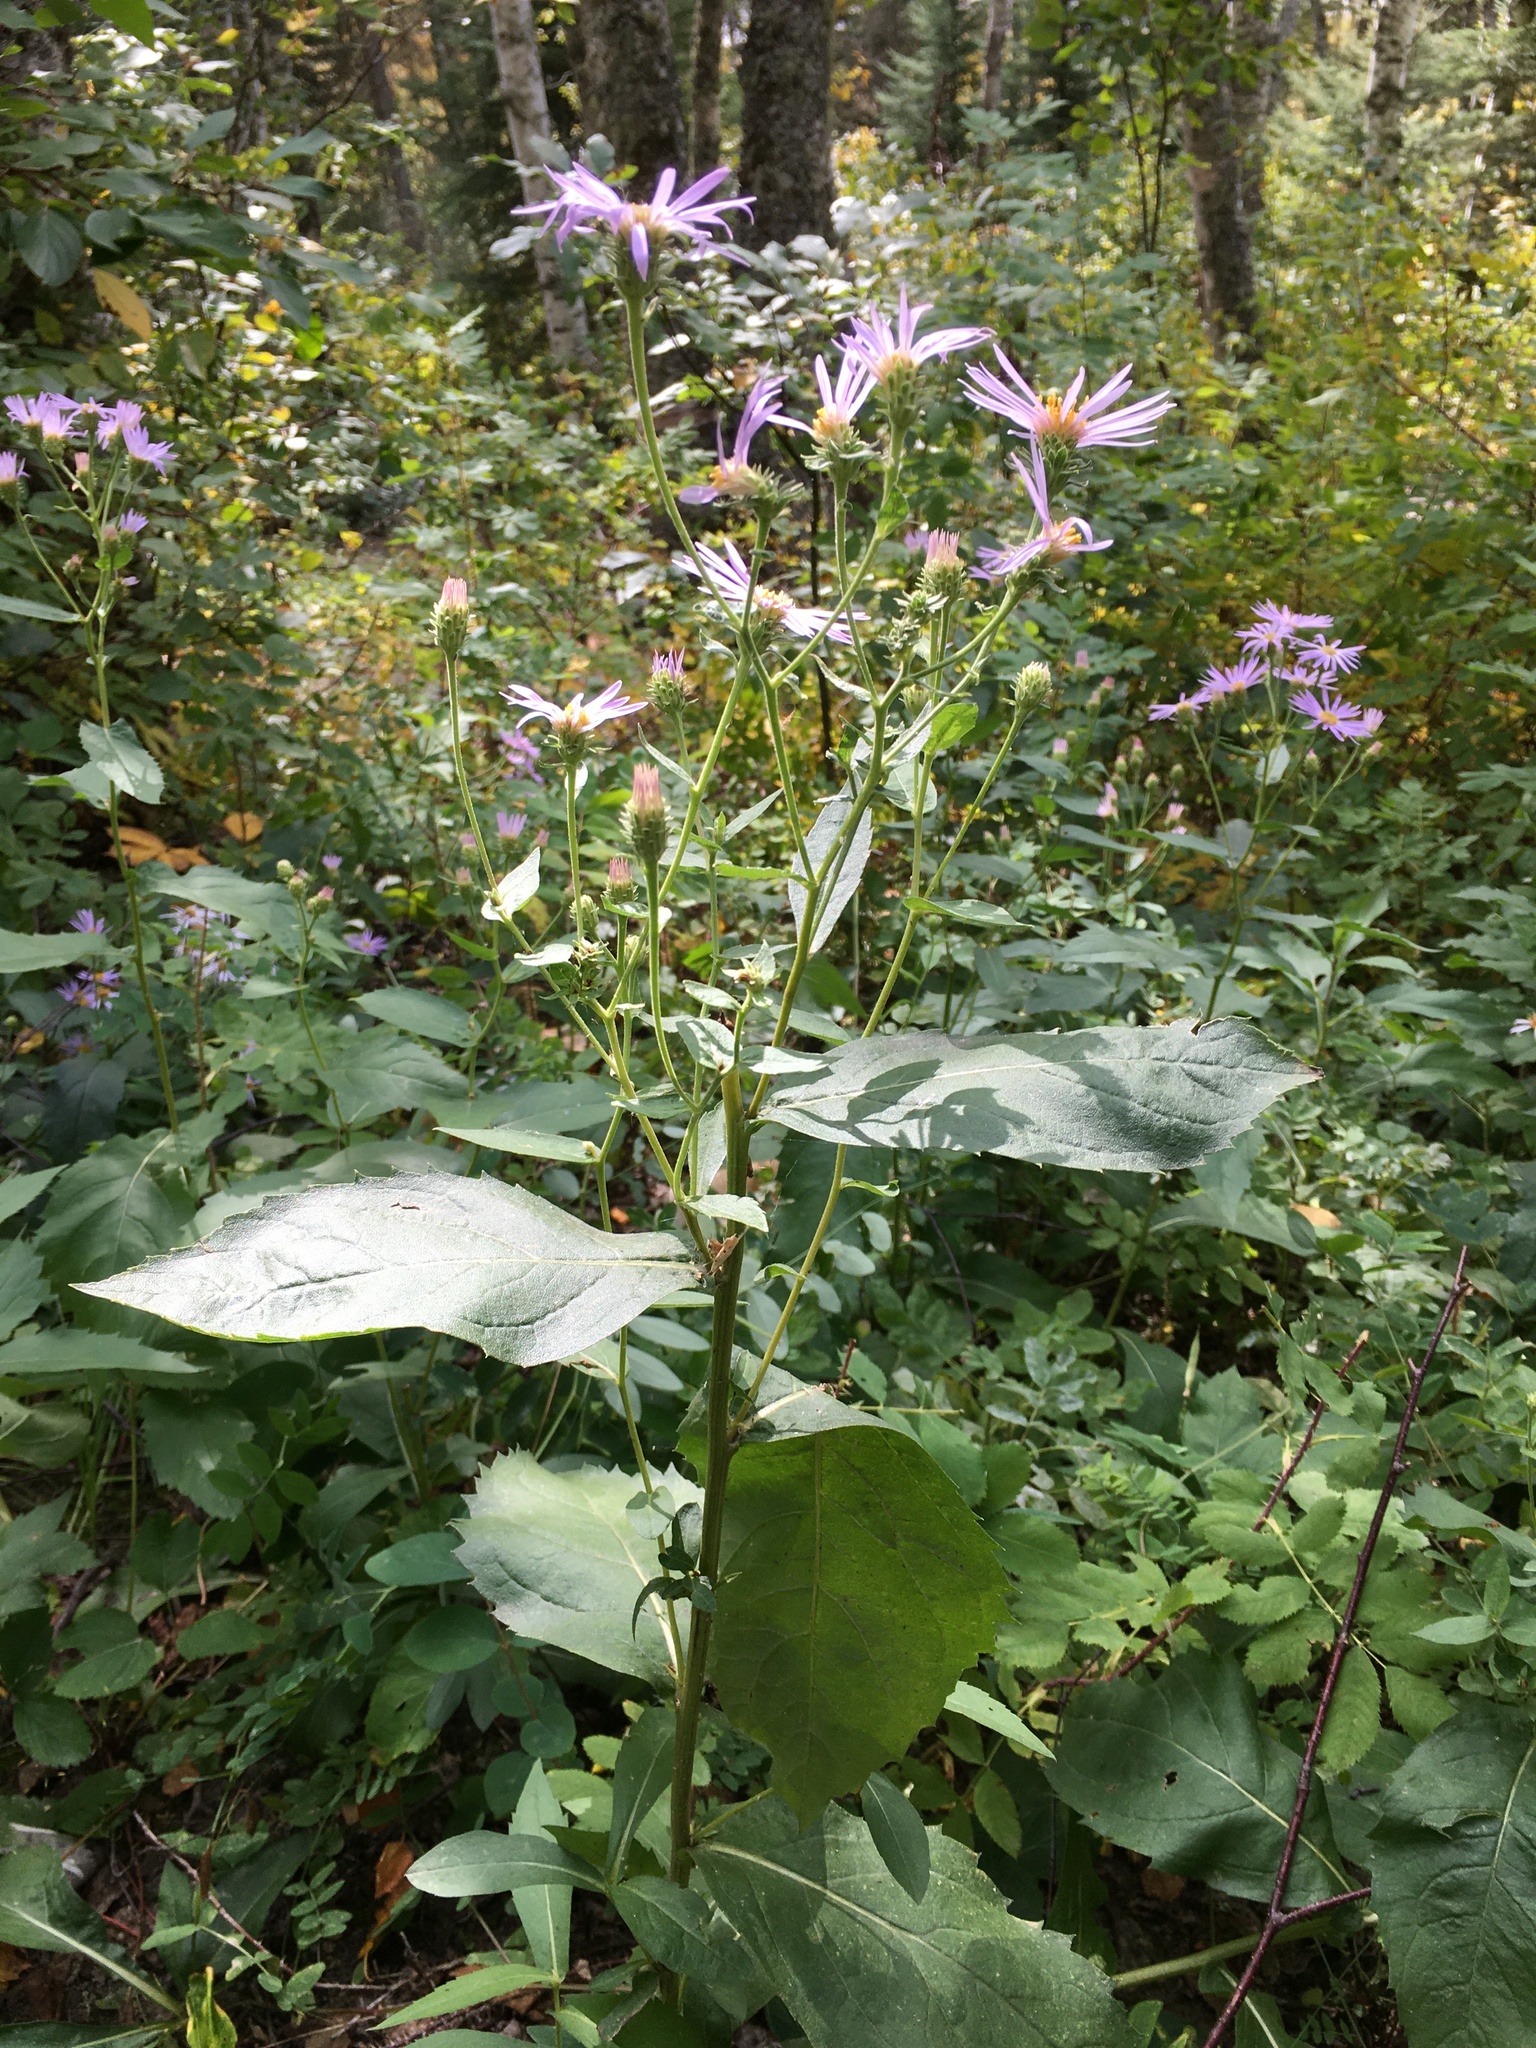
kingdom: Plantae
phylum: Tracheophyta
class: Magnoliopsida
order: Asterales
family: Asteraceae
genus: Eurybia
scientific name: Eurybia conspicua
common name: Showy aster
